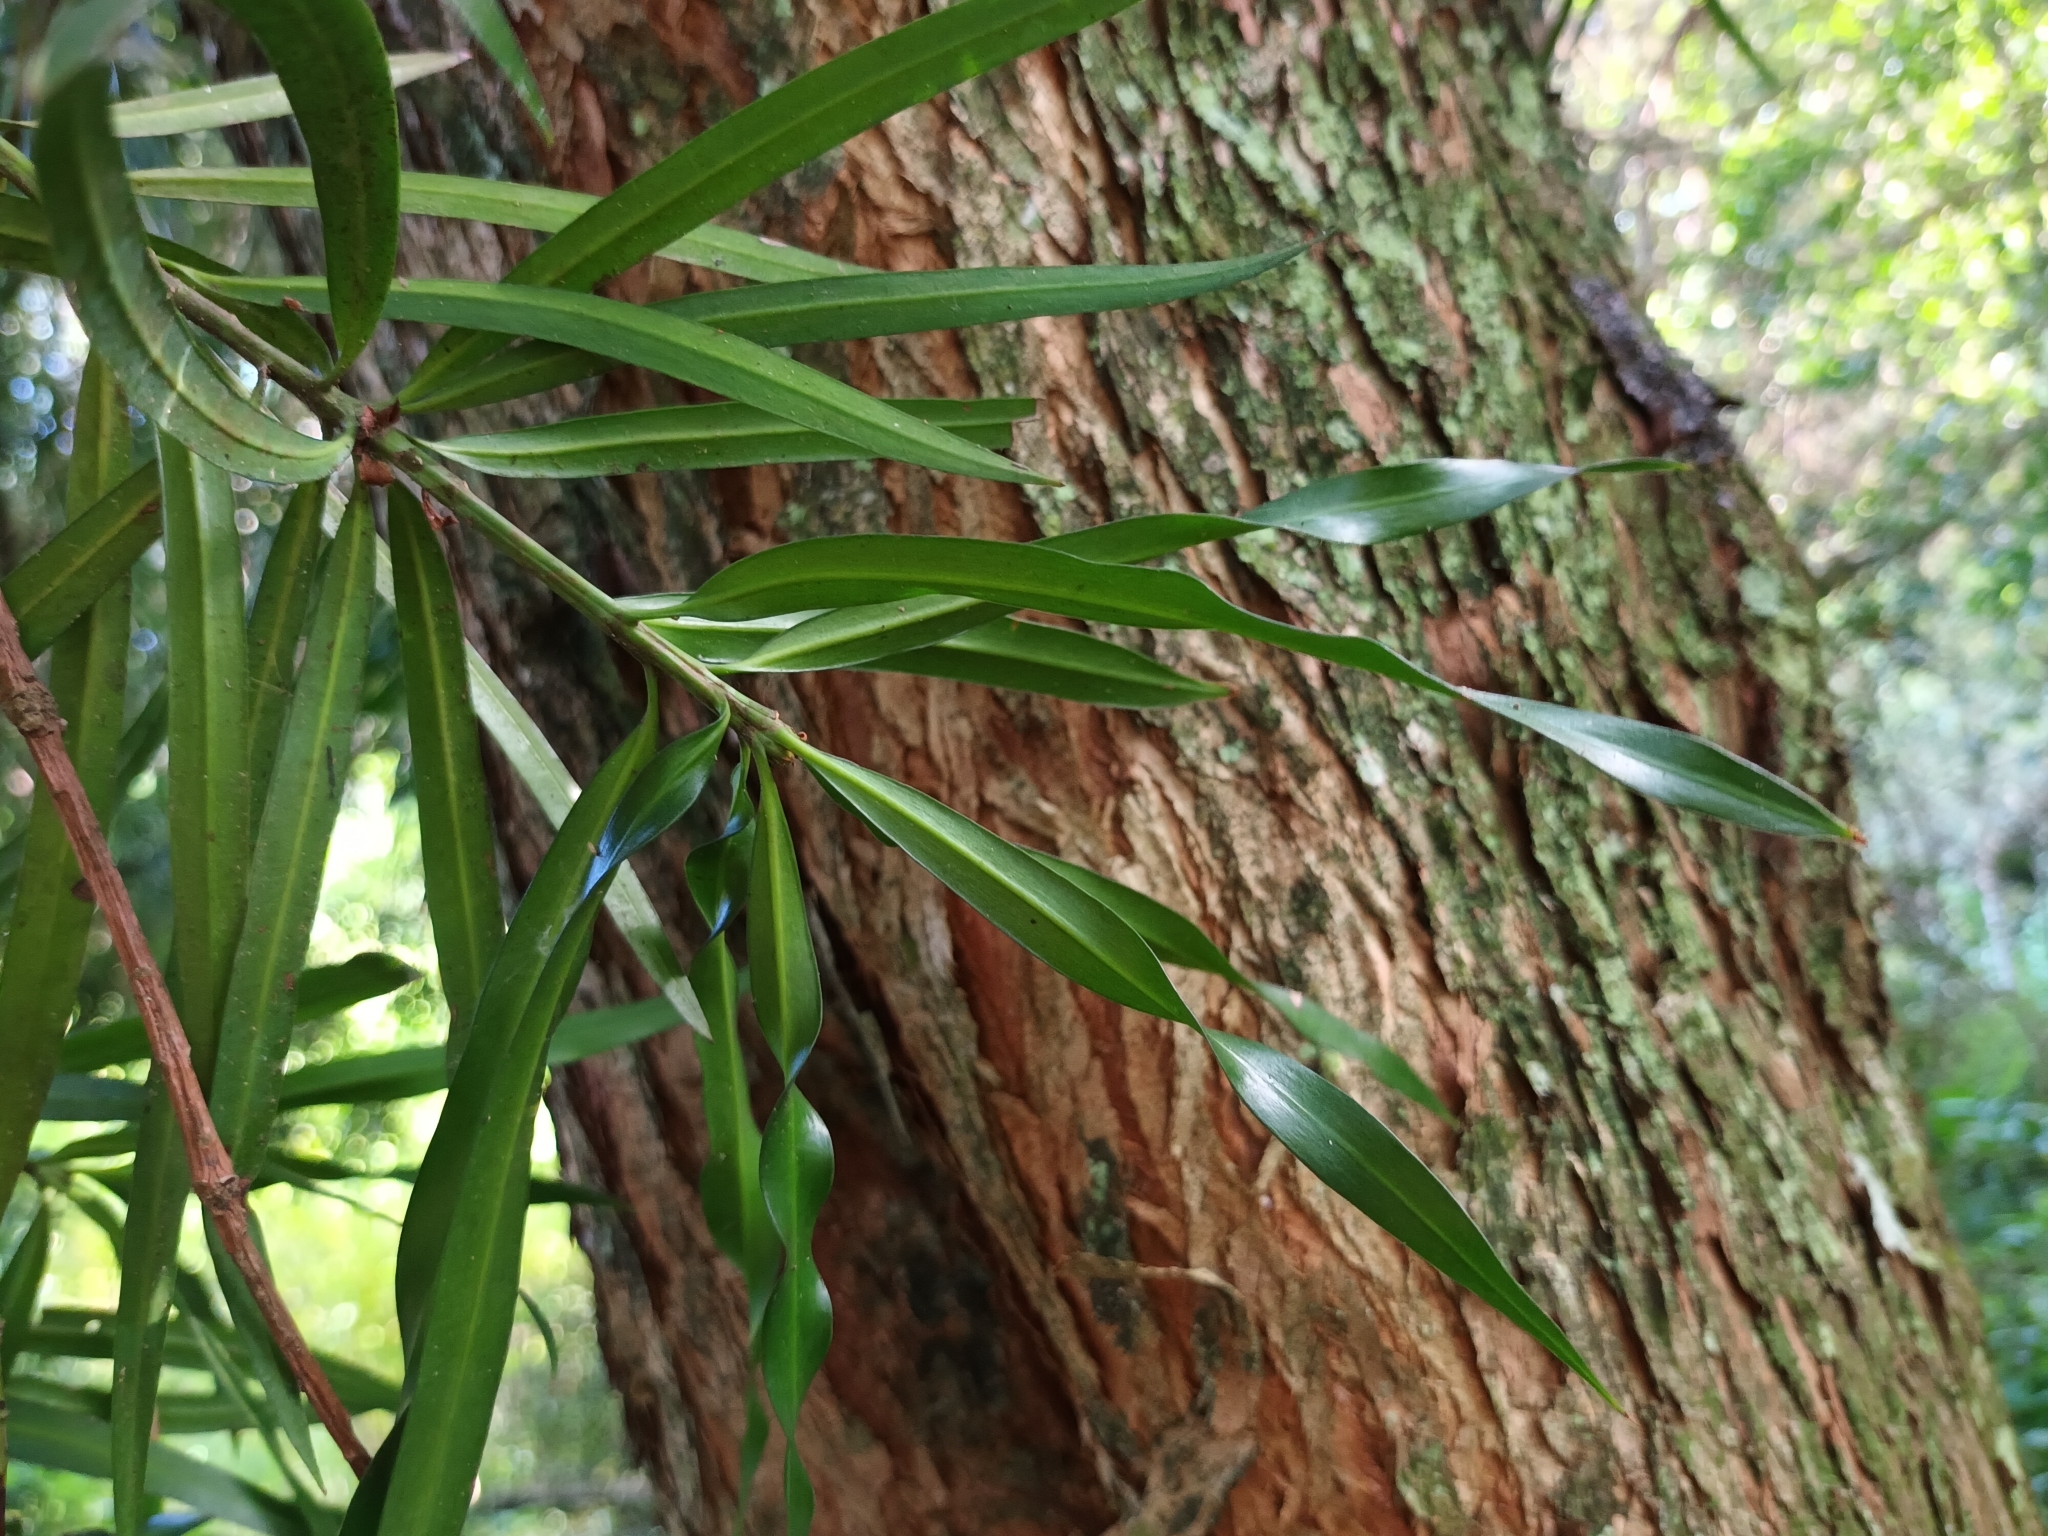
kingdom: Plantae
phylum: Tracheophyta
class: Pinopsida
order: Pinales
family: Podocarpaceae
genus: Podocarpus
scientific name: Podocarpus henkelii
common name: Henkel's yellowwood
